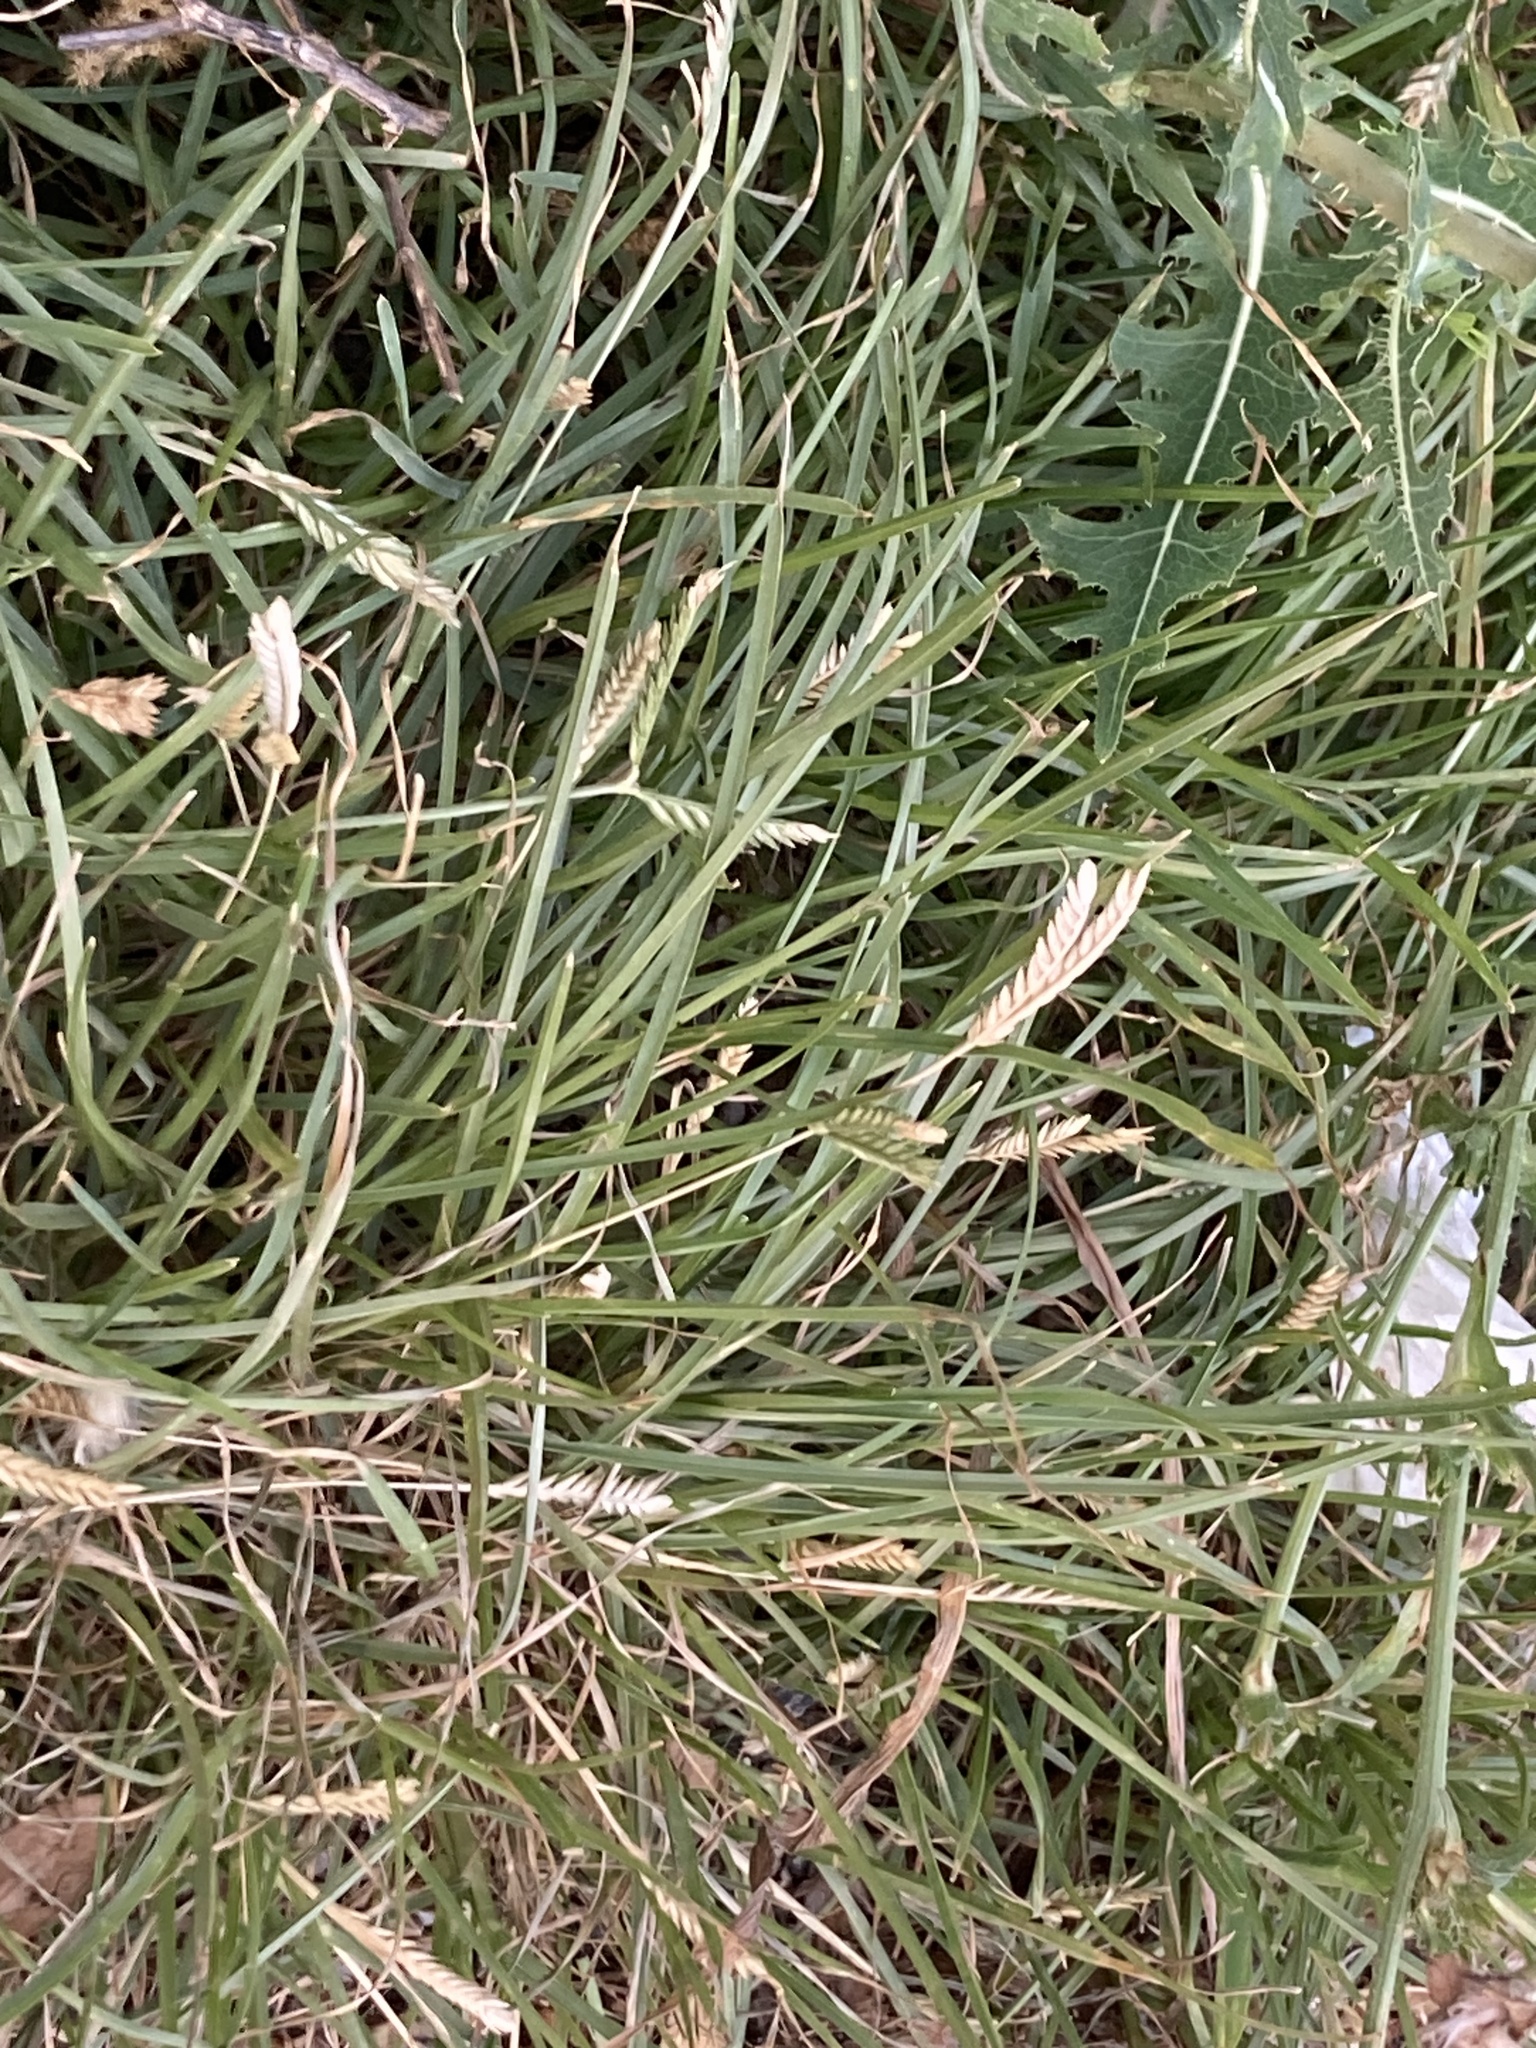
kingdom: Plantae
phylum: Tracheophyta
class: Liliopsida
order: Poales
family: Poaceae
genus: Eleusine
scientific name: Eleusine tristachya
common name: American yard-grass
